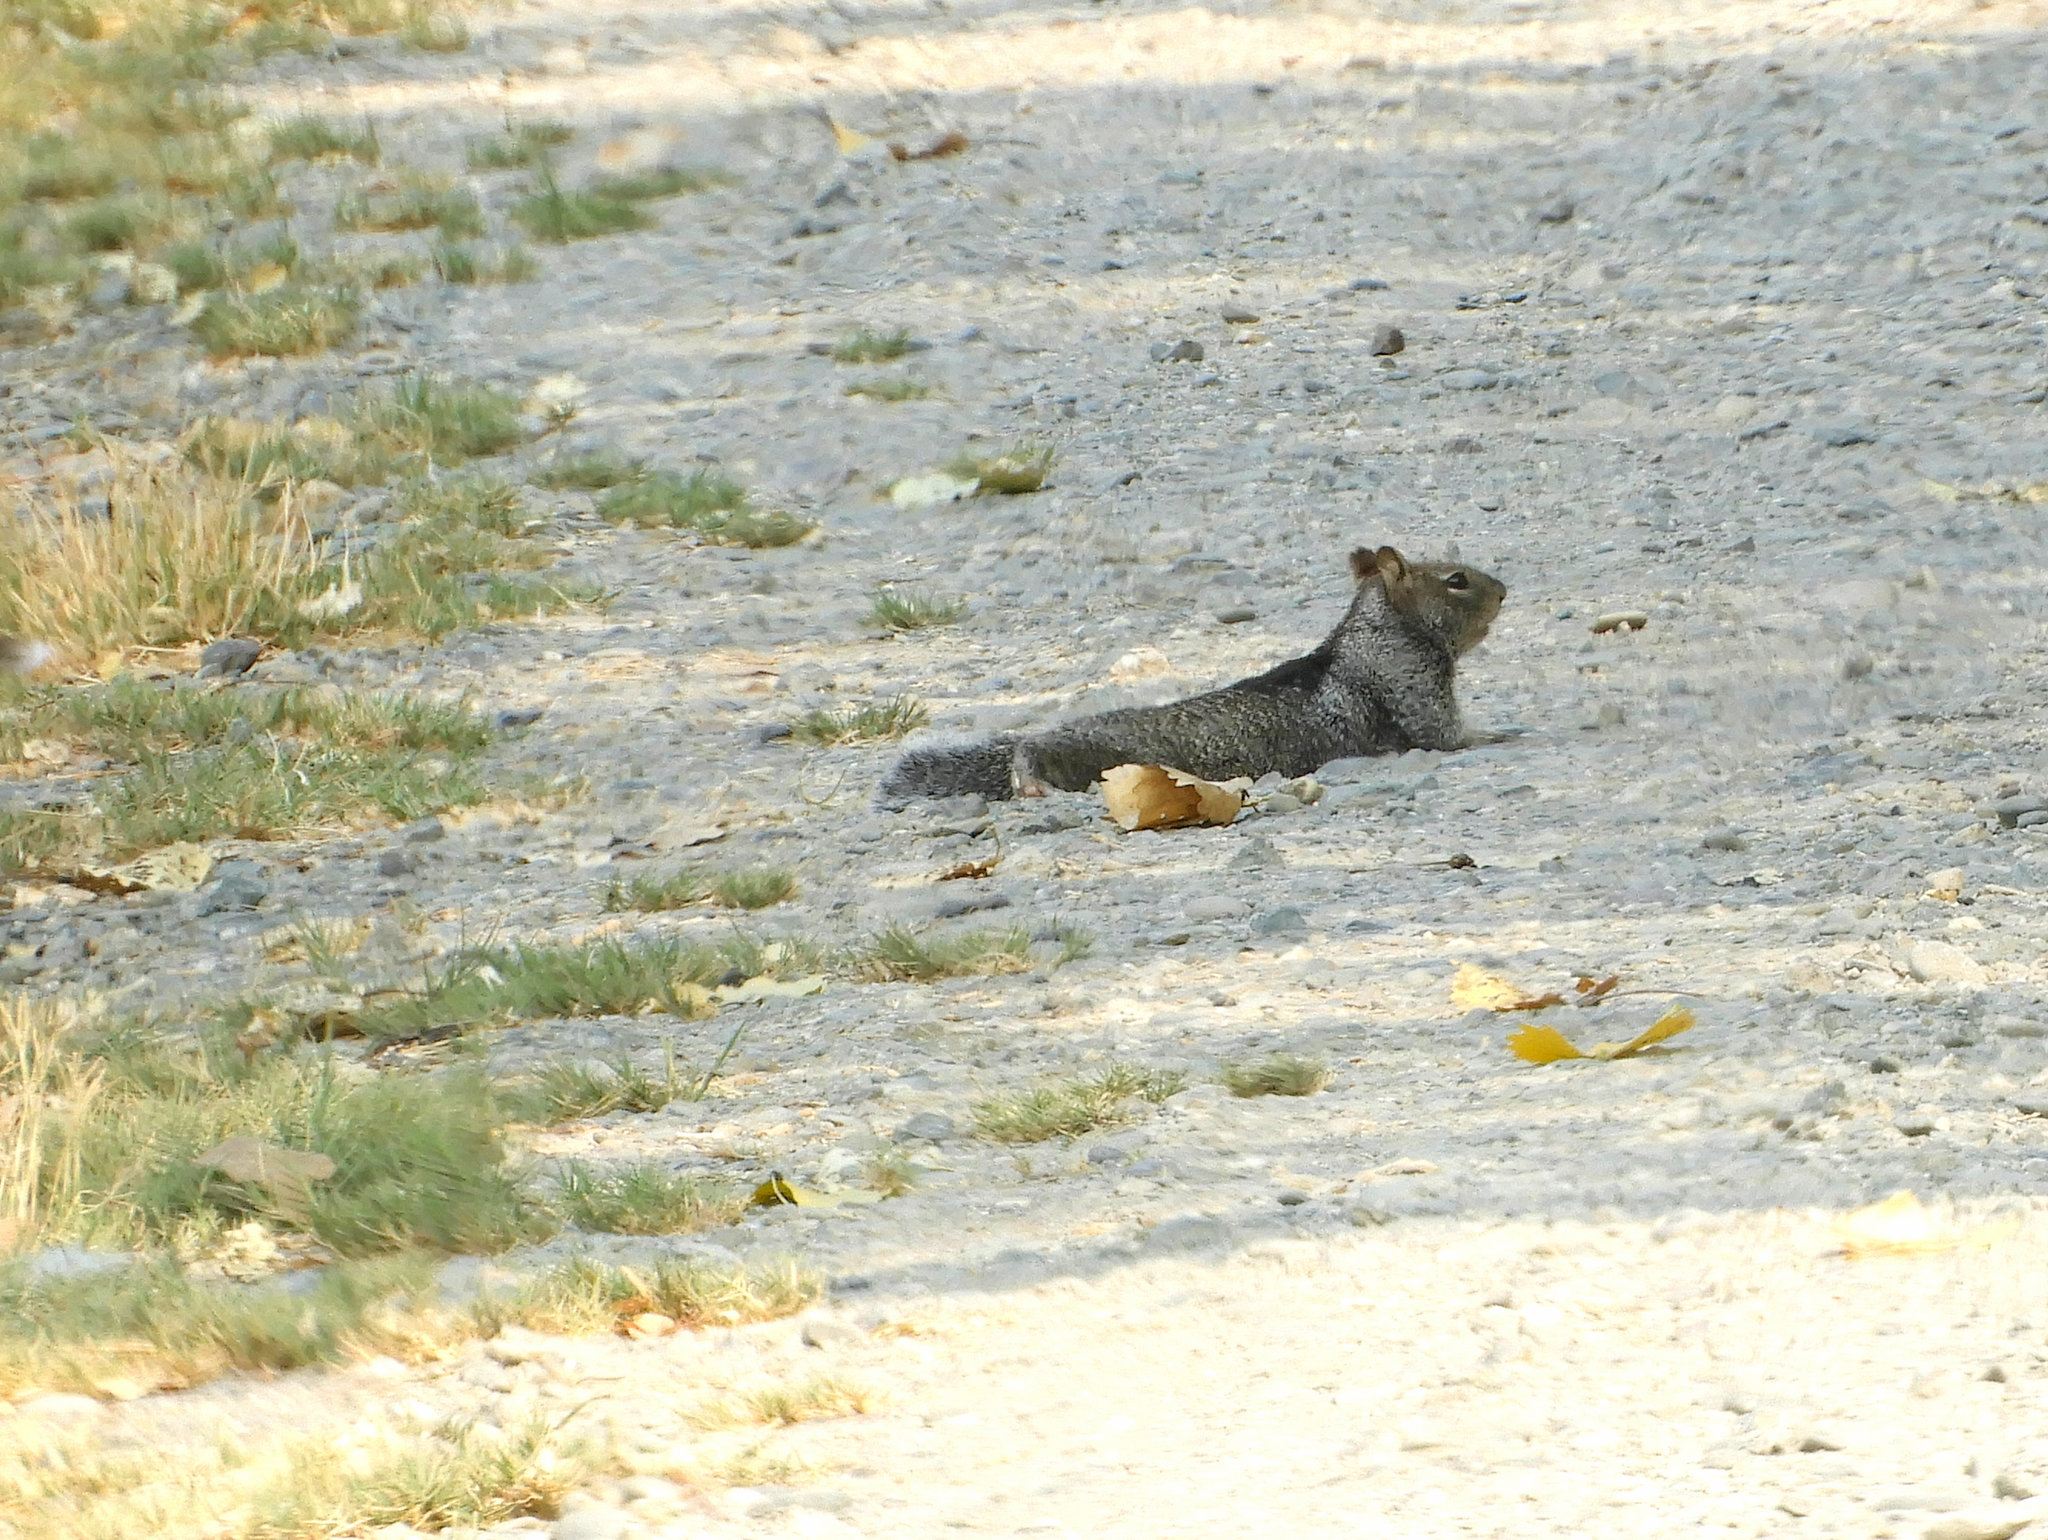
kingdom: Animalia
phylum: Chordata
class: Mammalia
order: Rodentia
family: Sciuridae
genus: Otospermophilus
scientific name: Otospermophilus beecheyi
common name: California ground squirrel
